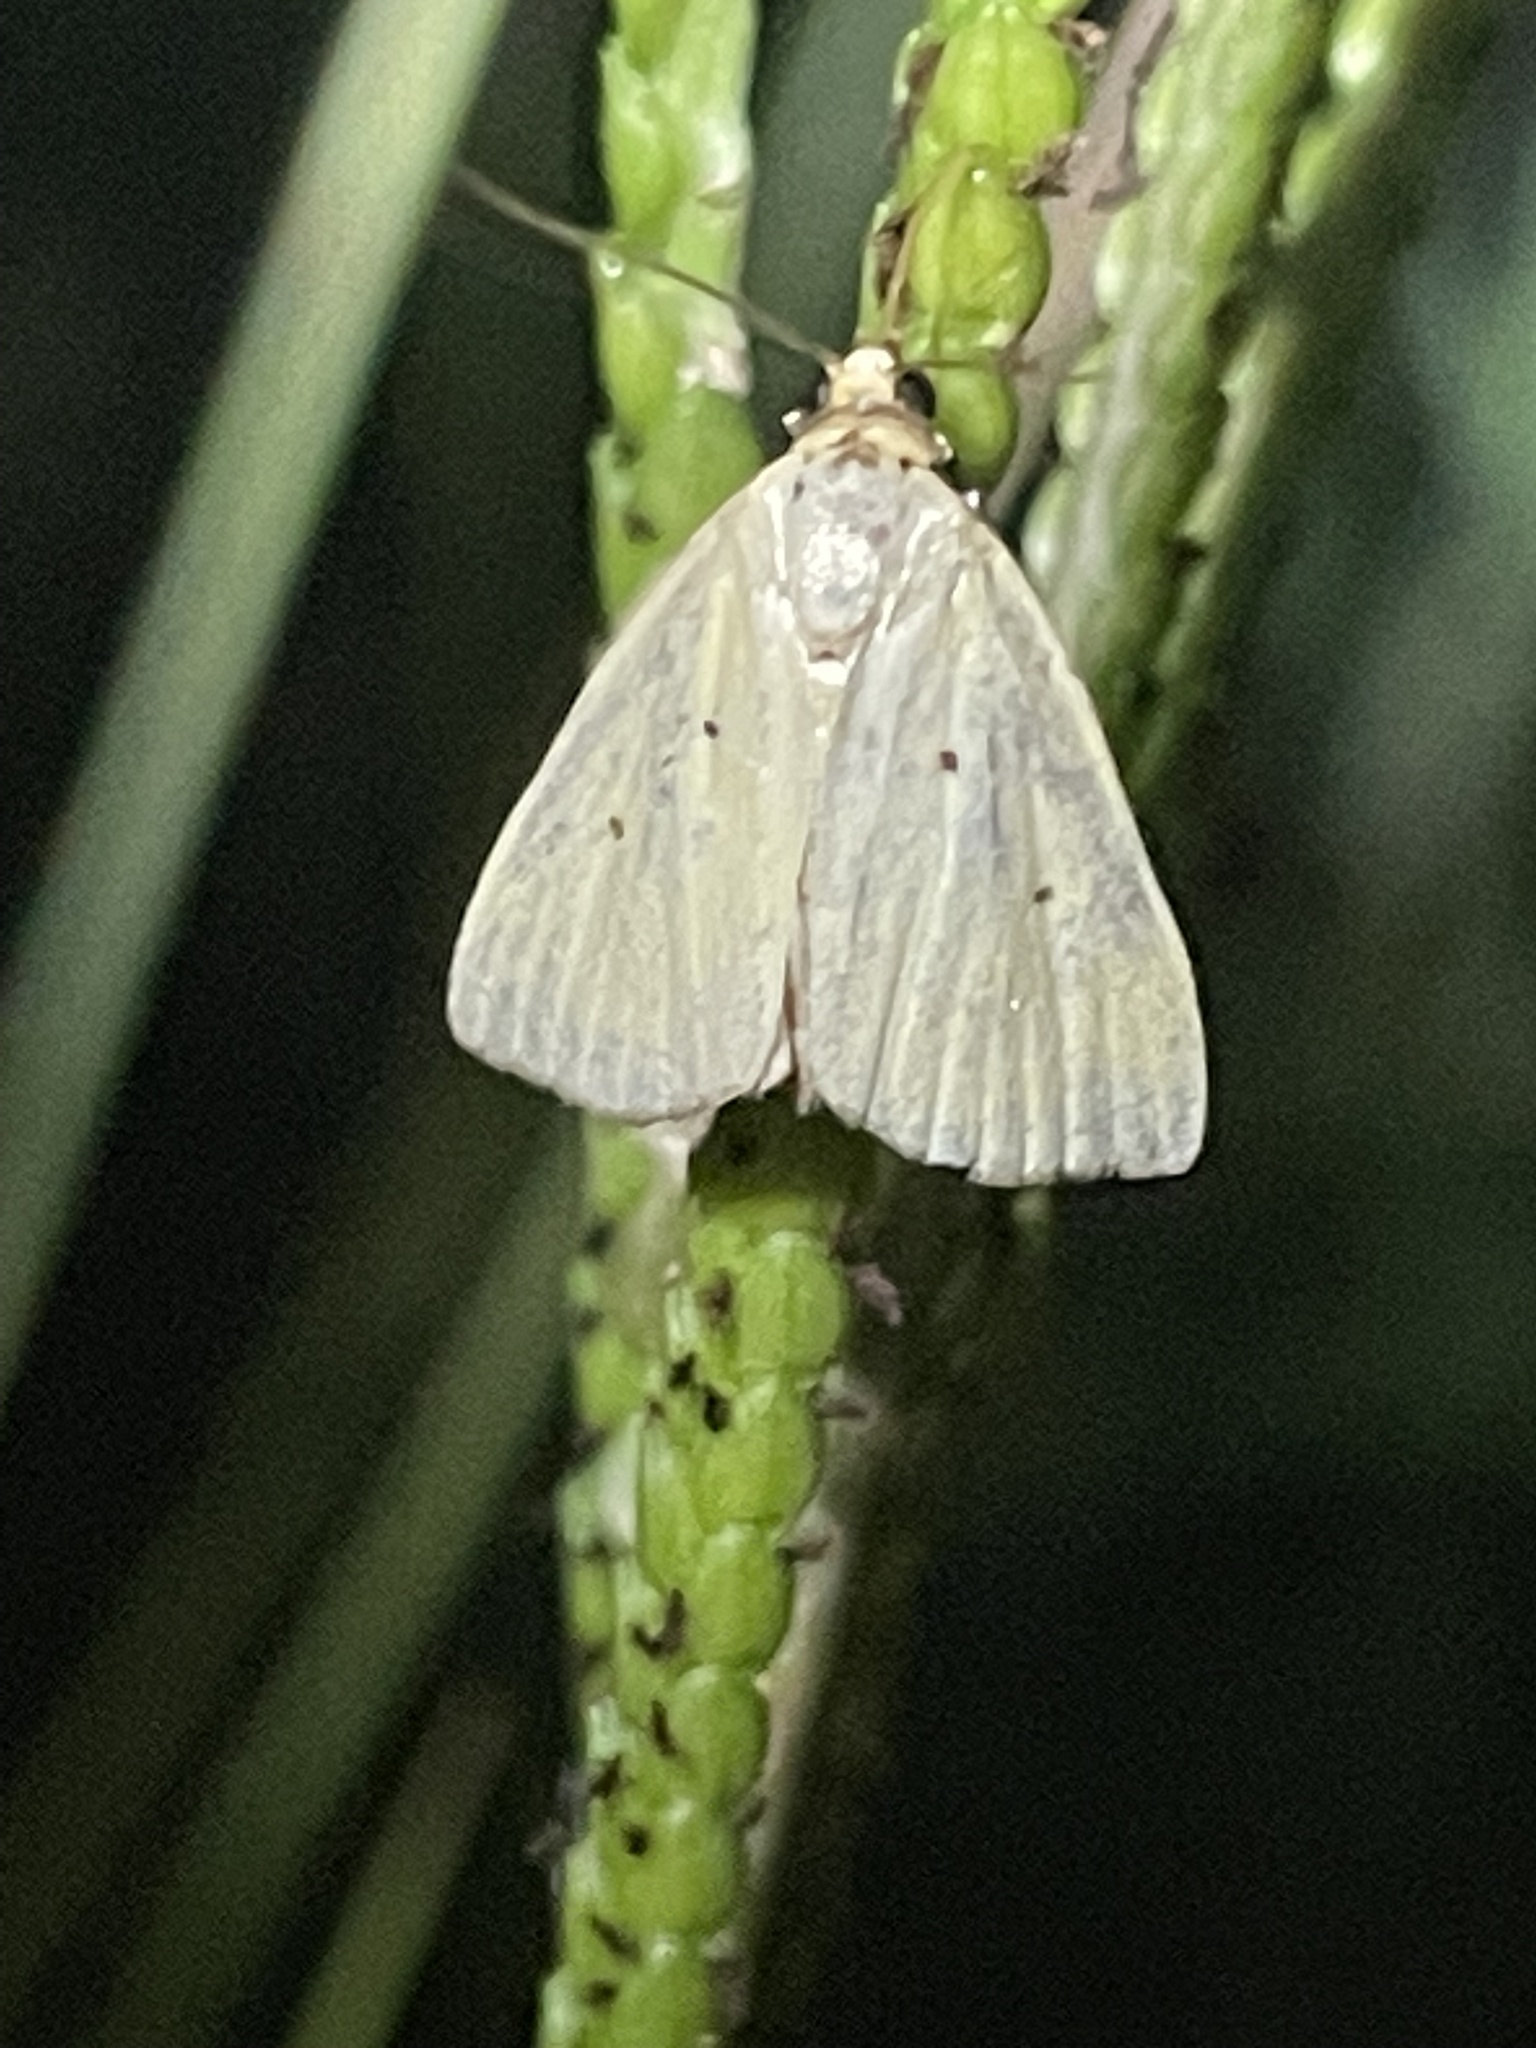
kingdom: Animalia
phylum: Arthropoda
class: Insecta
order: Lepidoptera
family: Noctuidae
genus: Marimatha
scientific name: Marimatha nigrofimbria
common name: Black-bordered lemon moth
